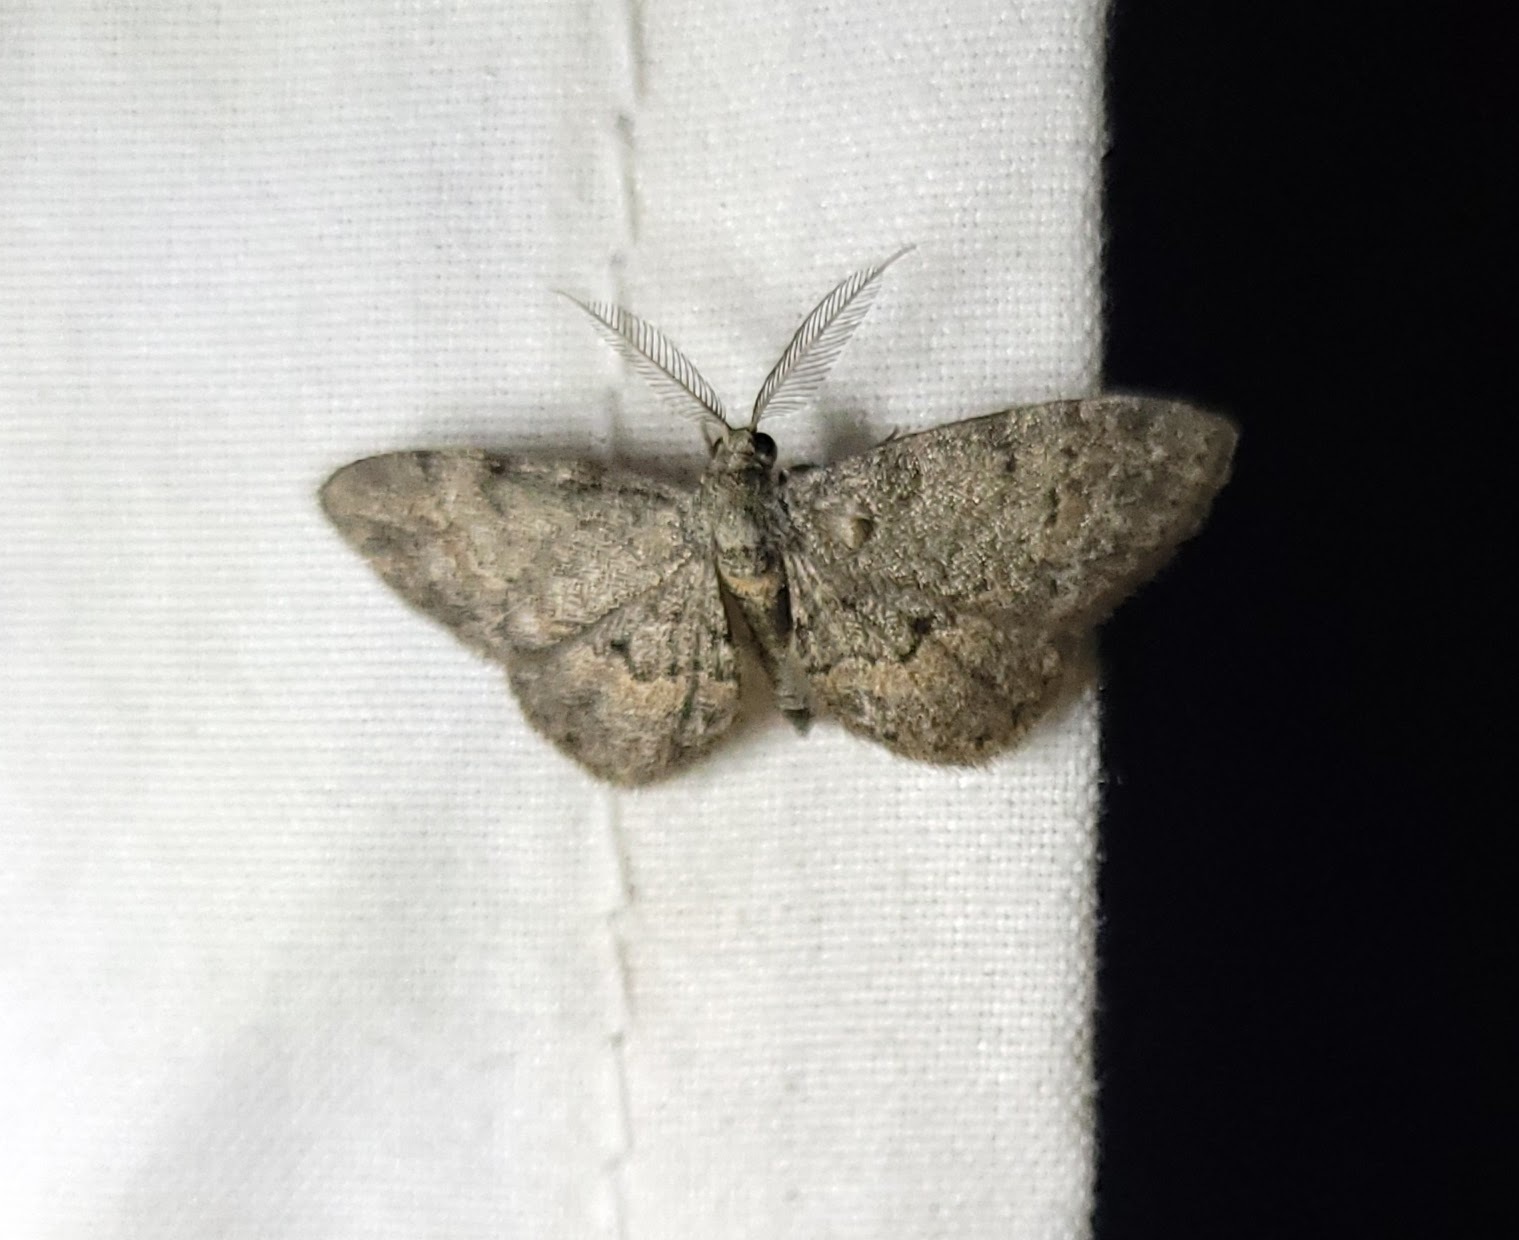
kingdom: Animalia
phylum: Arthropoda
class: Insecta
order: Lepidoptera
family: Geometridae
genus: Glenoides
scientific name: Glenoides texanaria
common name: Texas gray
